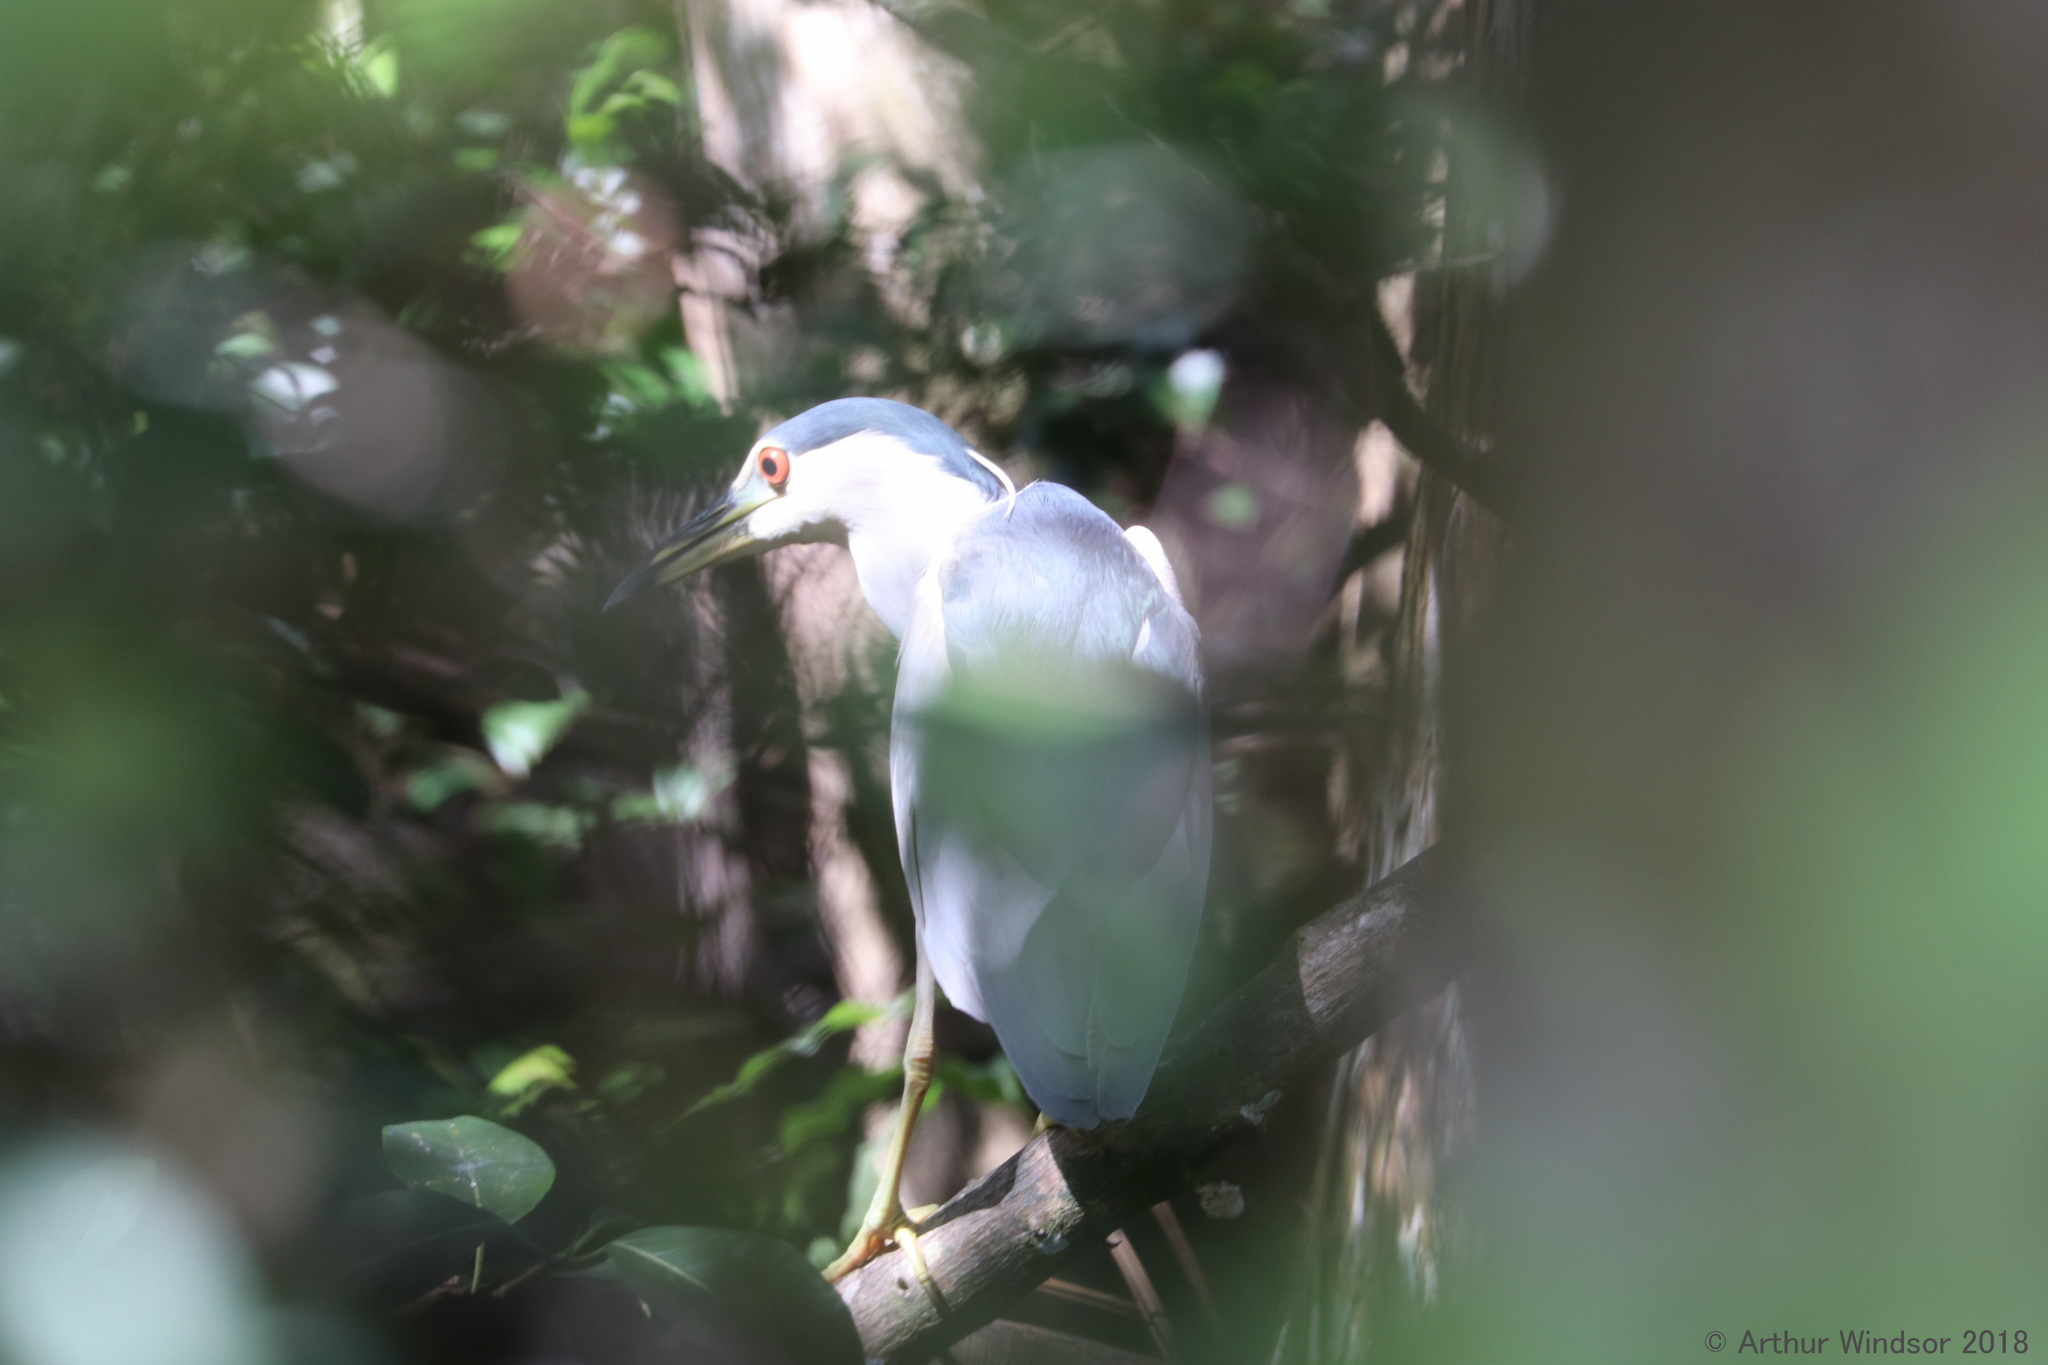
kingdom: Animalia
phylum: Chordata
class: Aves
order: Pelecaniformes
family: Ardeidae
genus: Nycticorax
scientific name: Nycticorax nycticorax
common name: Black-crowned night heron
